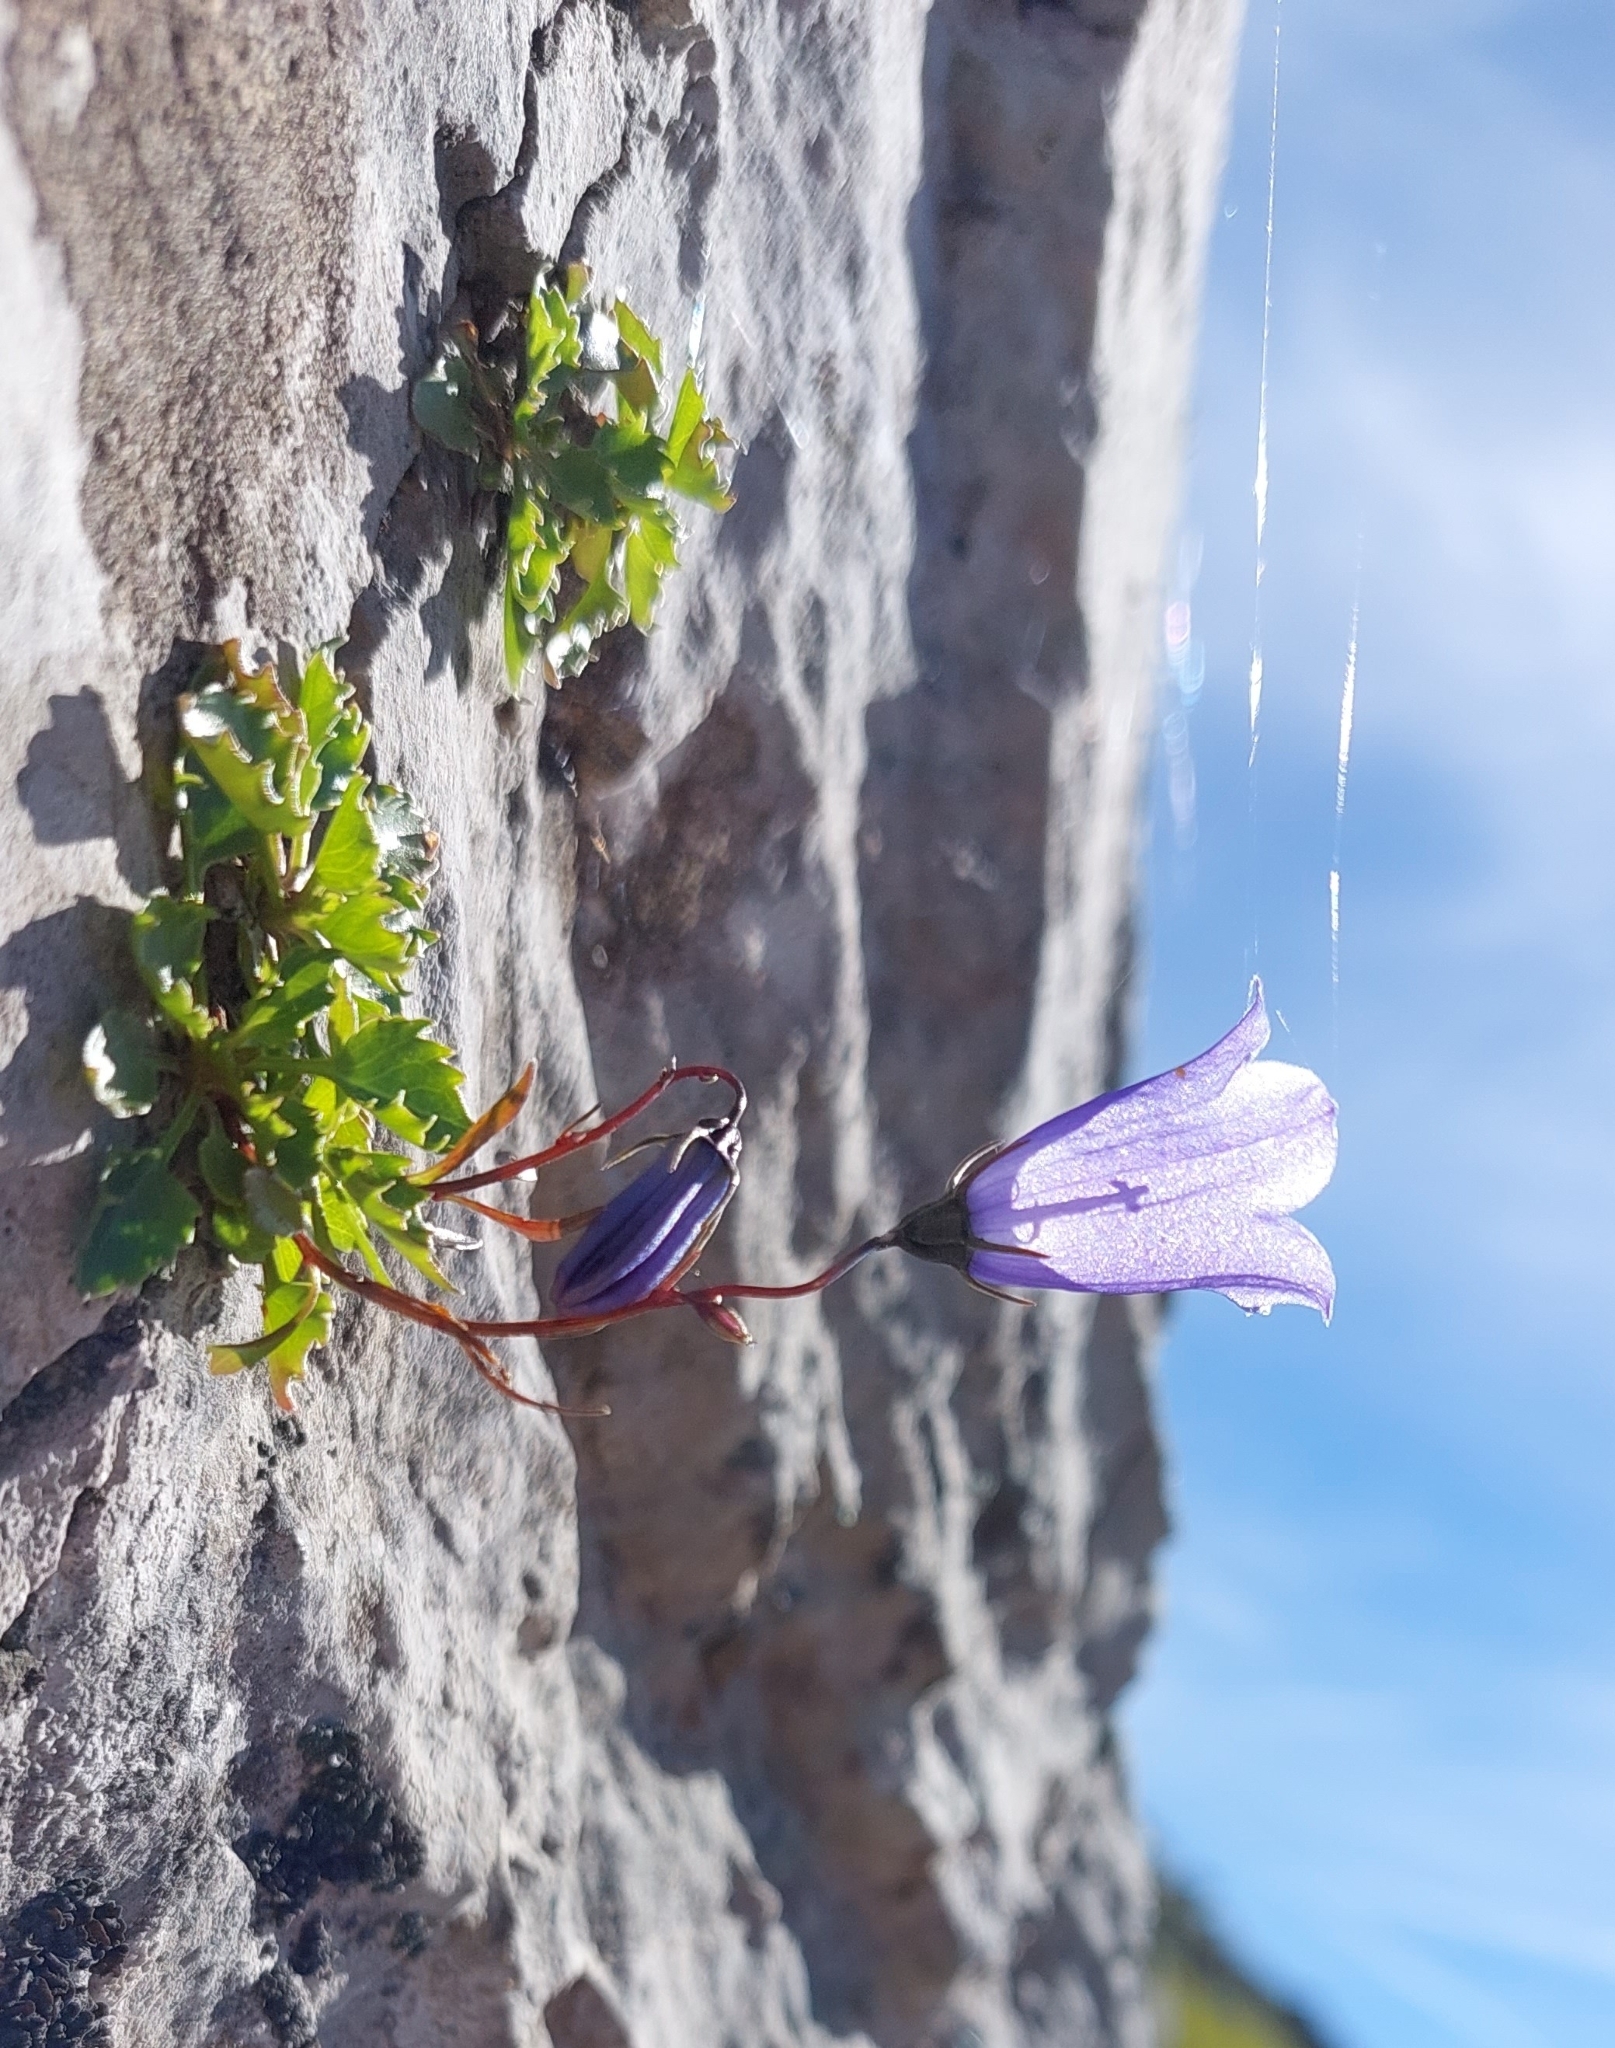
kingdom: Plantae
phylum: Tracheophyta
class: Magnoliopsida
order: Asterales
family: Campanulaceae
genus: Campanula
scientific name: Campanula cochleariifolia
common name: Fairies'-thimbles
